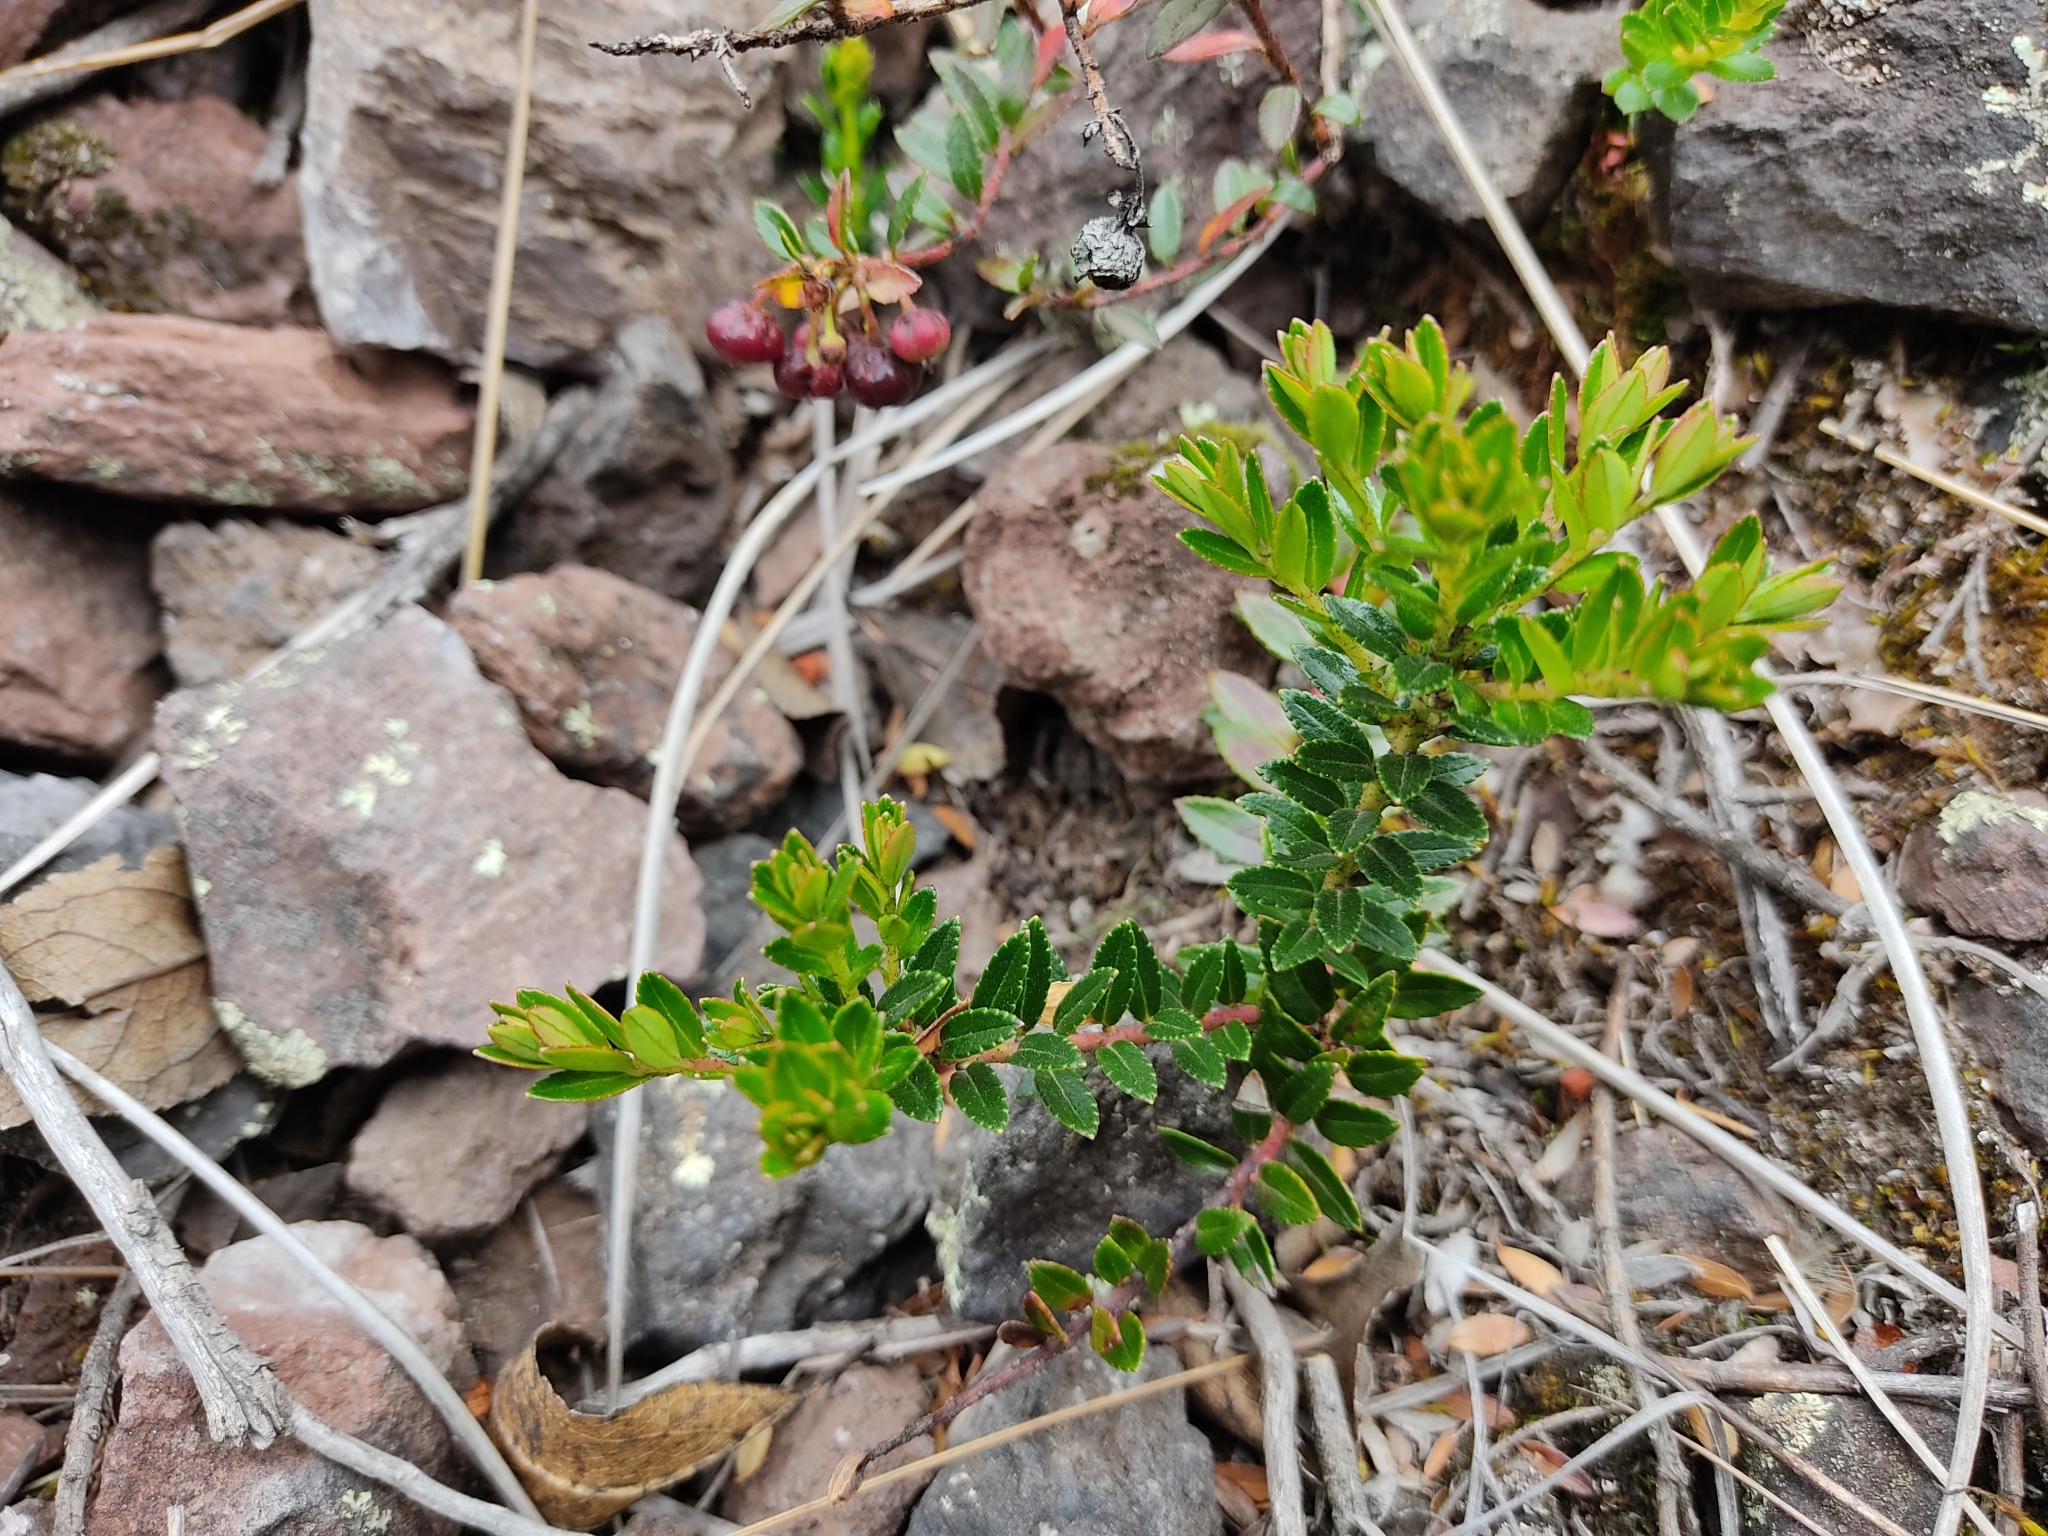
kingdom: Plantae
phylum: Tracheophyta
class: Magnoliopsida
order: Ericales
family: Ericaceae
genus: Gaultheria
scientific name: Gaultheria myrsinoides
